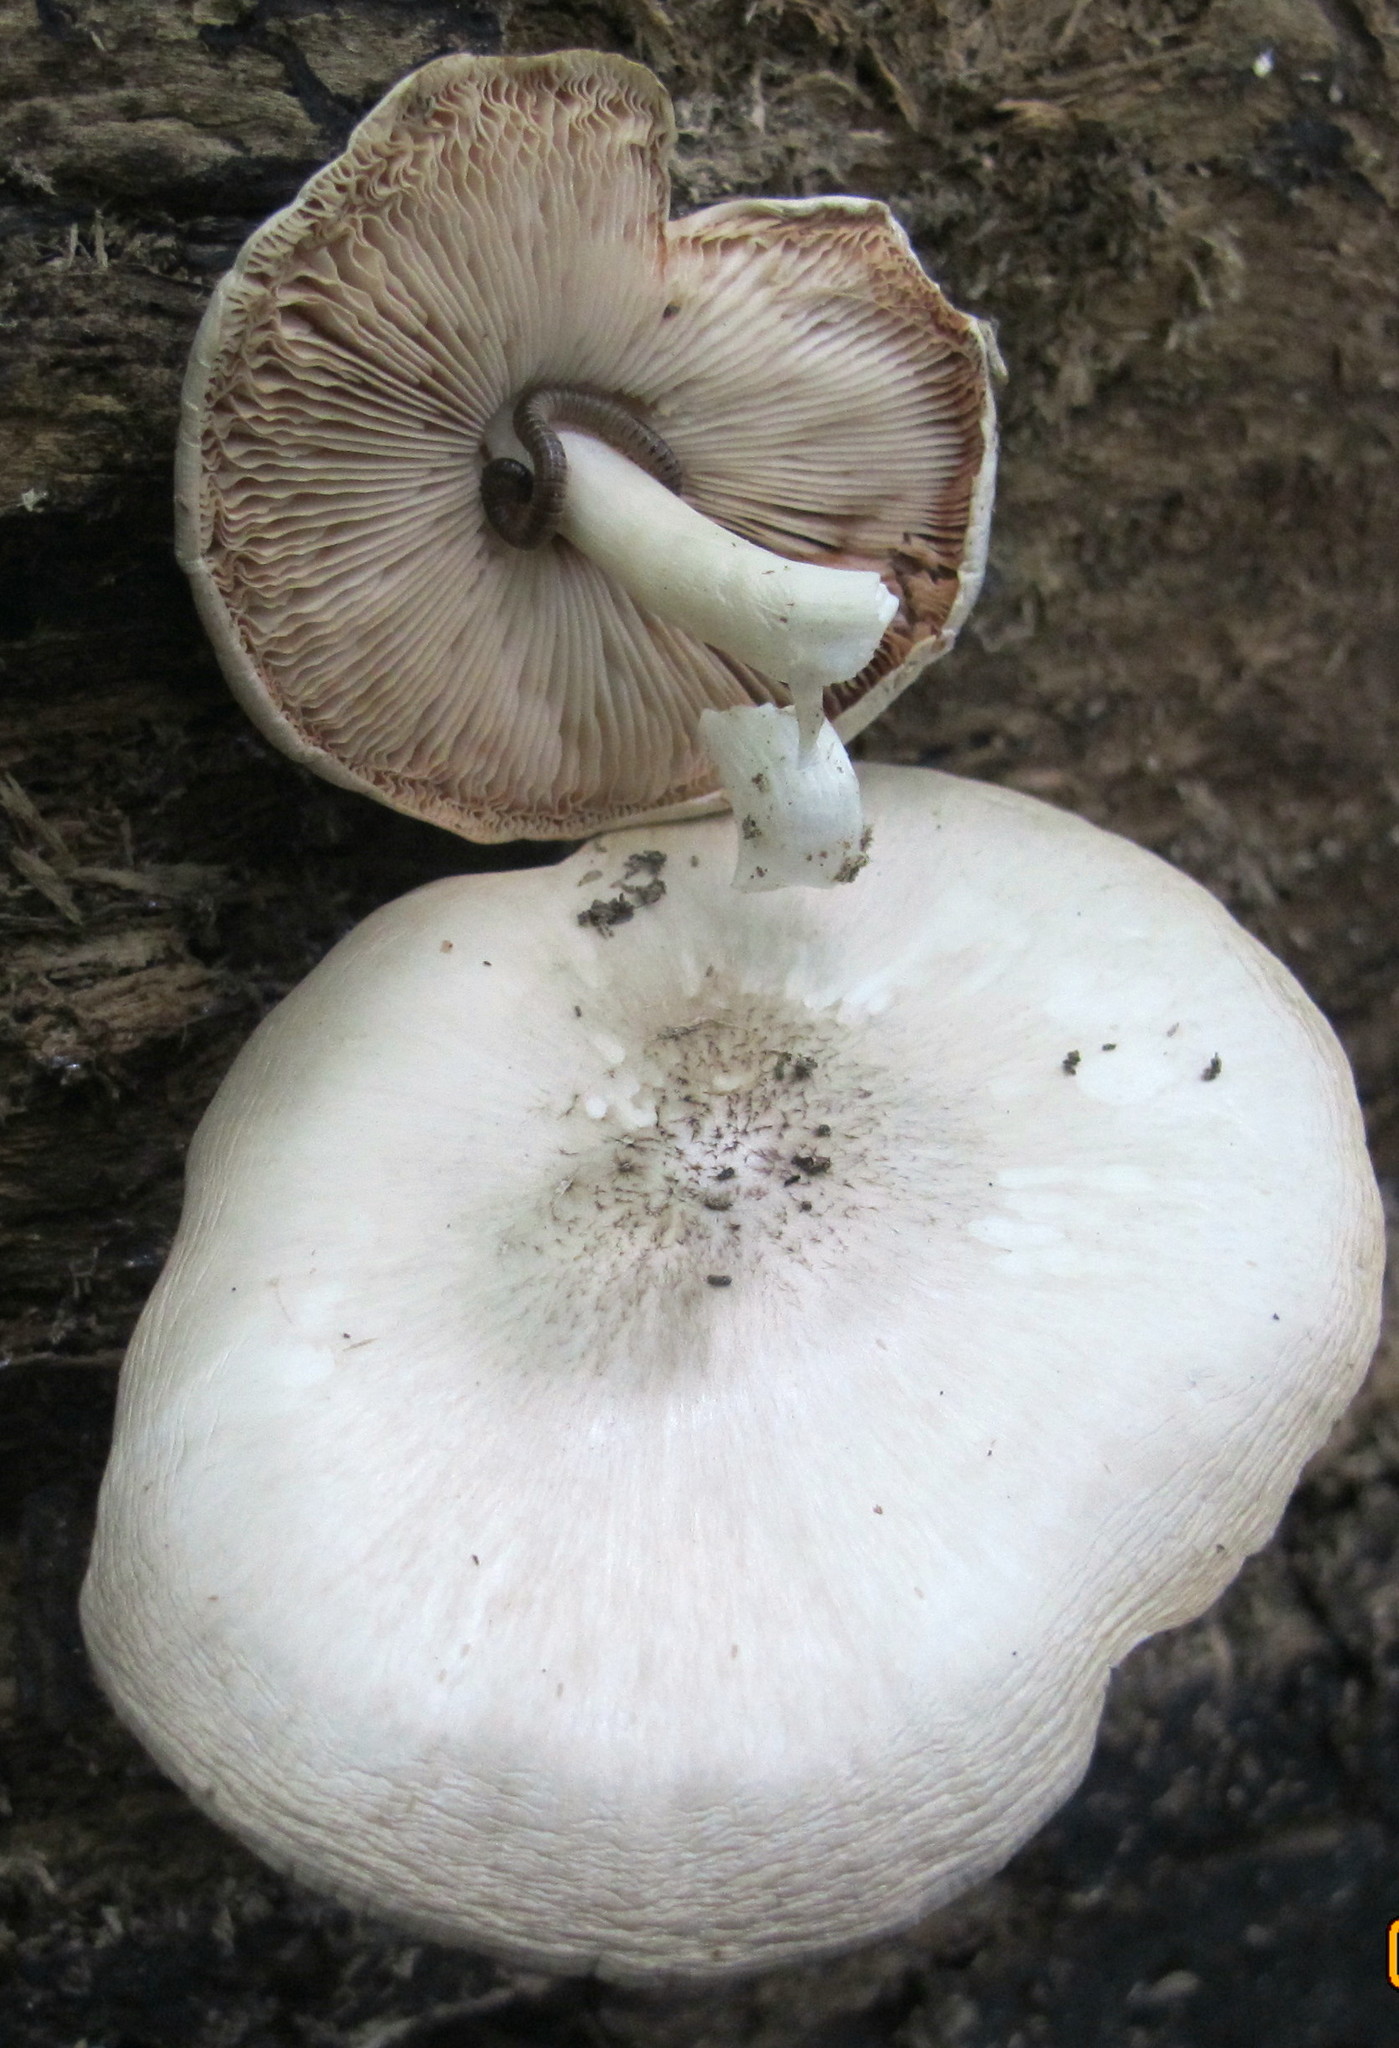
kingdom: Fungi
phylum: Basidiomycota
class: Agaricomycetes
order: Agaricales
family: Pluteaceae
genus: Pluteus
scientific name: Pluteus petasatus
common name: Scaly shield
